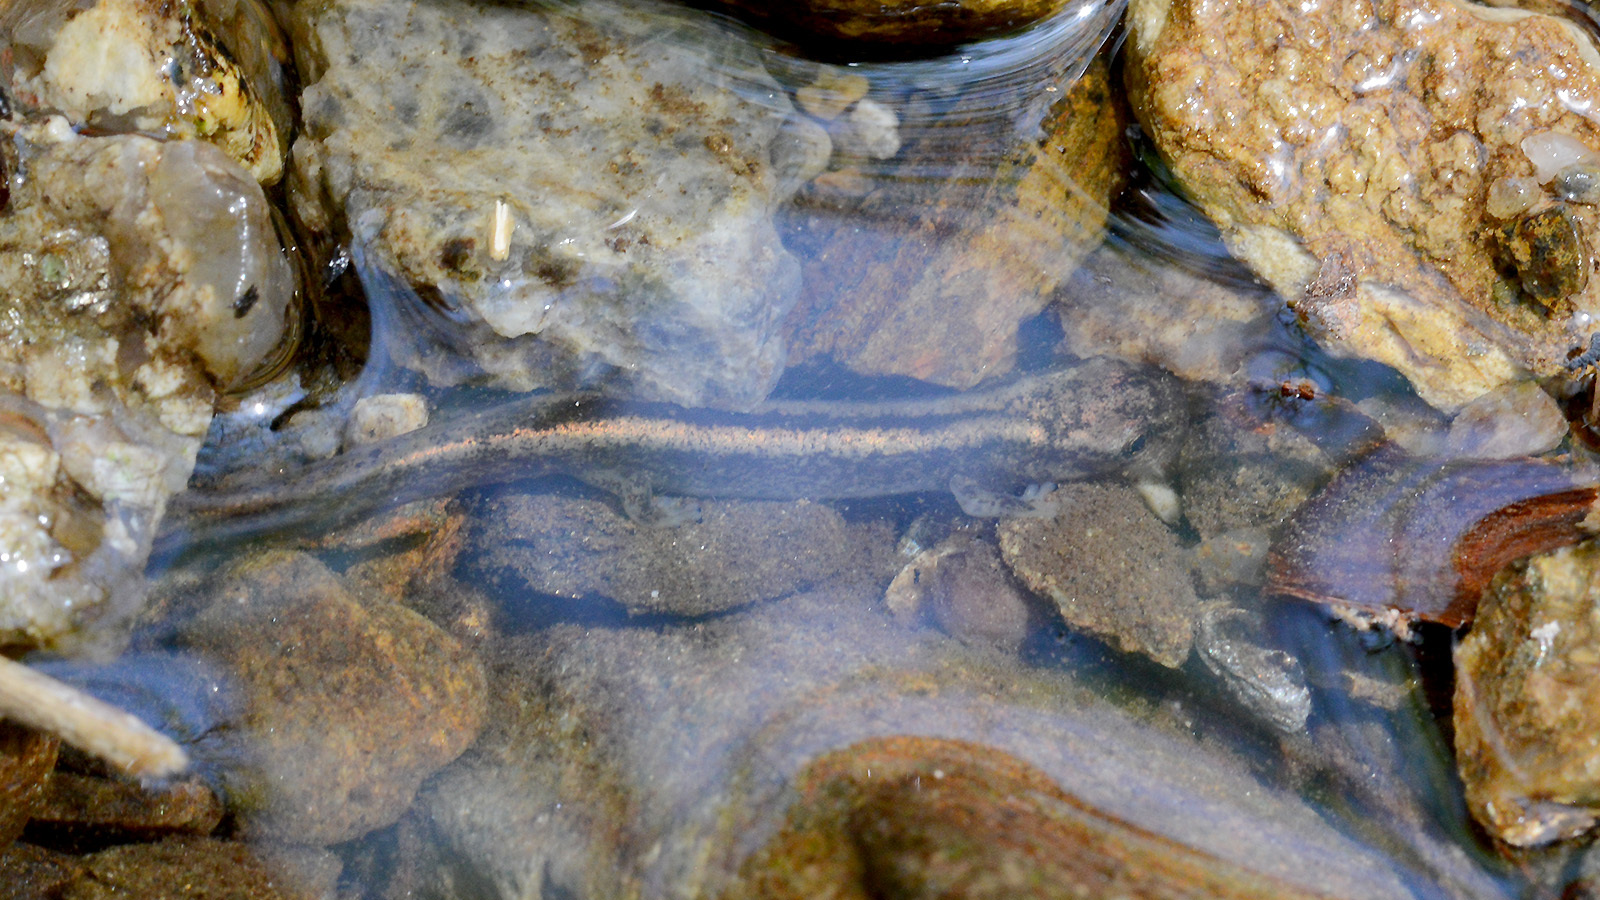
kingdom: Animalia
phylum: Chordata
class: Amphibia
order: Caudata
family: Hynobiidae
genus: Onychodactylus
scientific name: Onychodactylus koreanus
